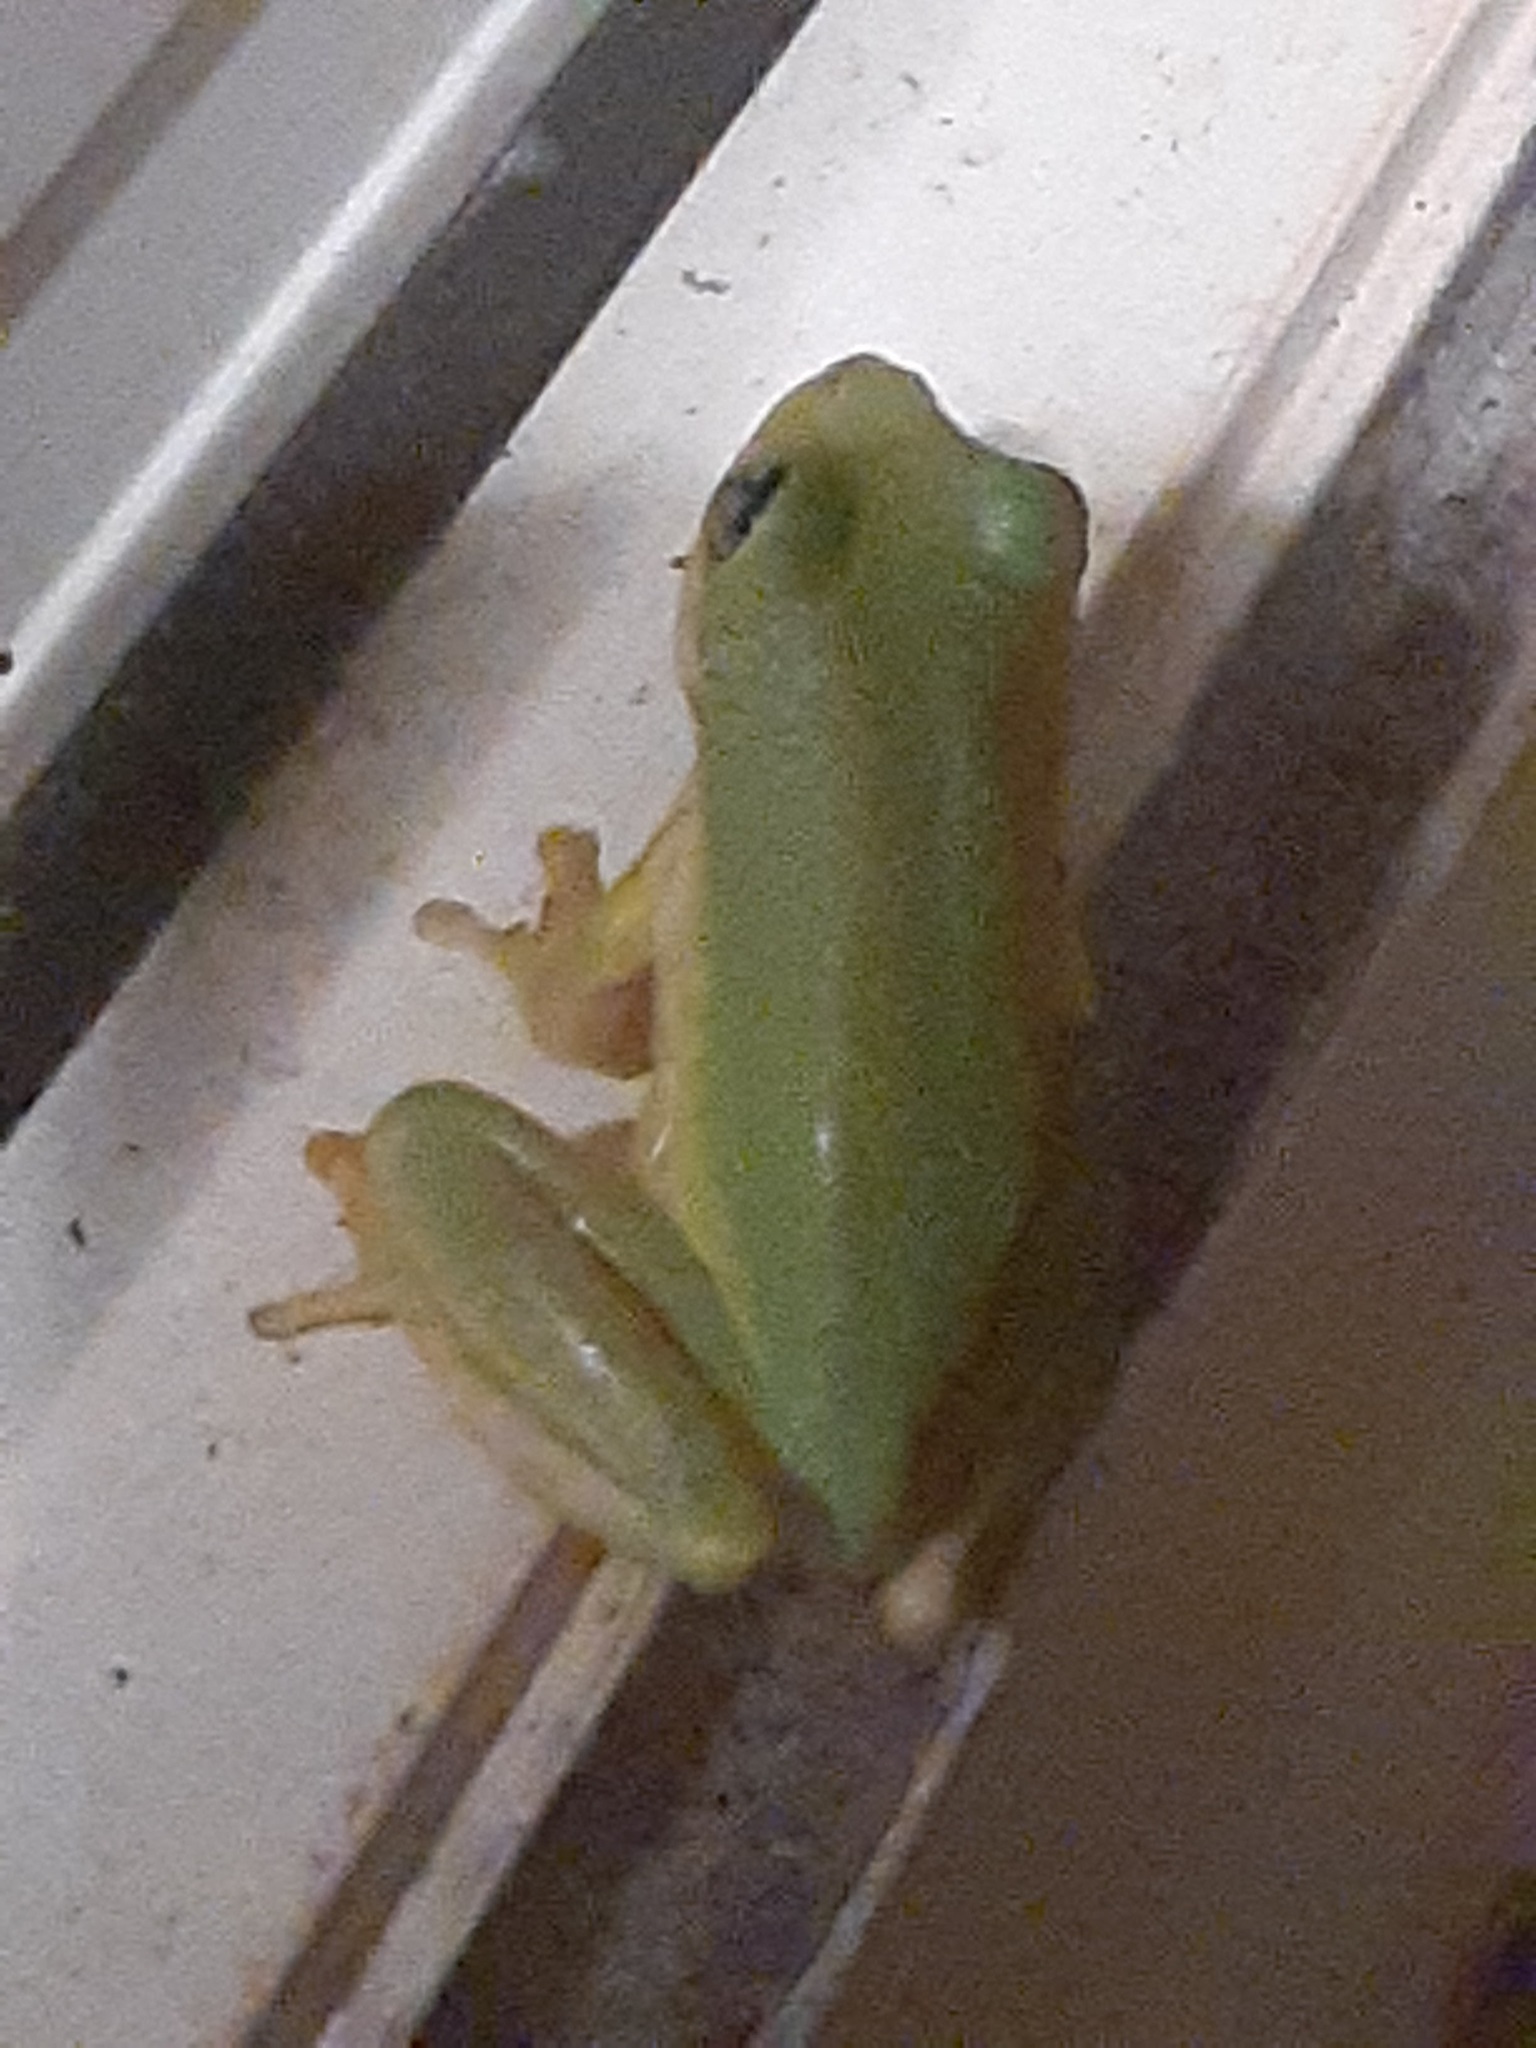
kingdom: Animalia
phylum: Chordata
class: Amphibia
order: Anura
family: Hylidae
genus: Dryophytes
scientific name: Dryophytes squirellus
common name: Squirrel treefrog
